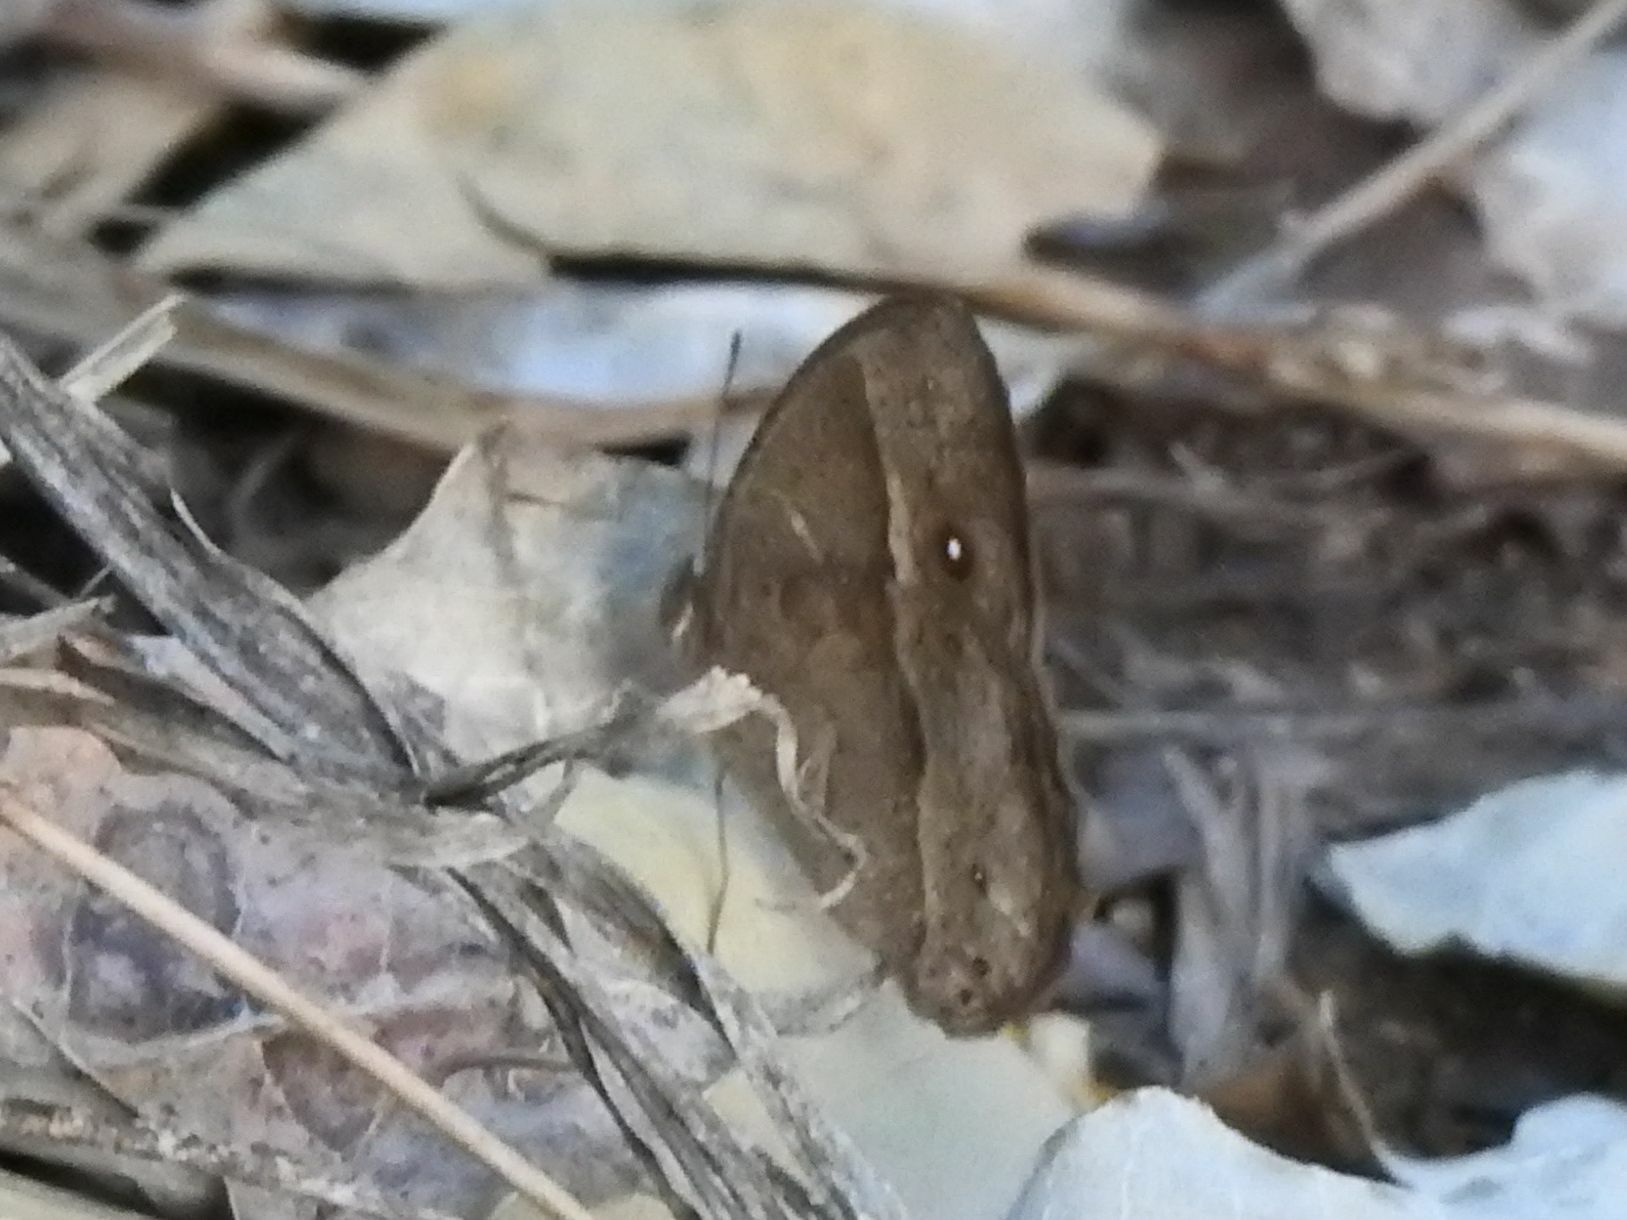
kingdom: Animalia
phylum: Arthropoda
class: Insecta
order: Lepidoptera
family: Nymphalidae
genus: Mycalesis
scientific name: Mycalesis anynana
